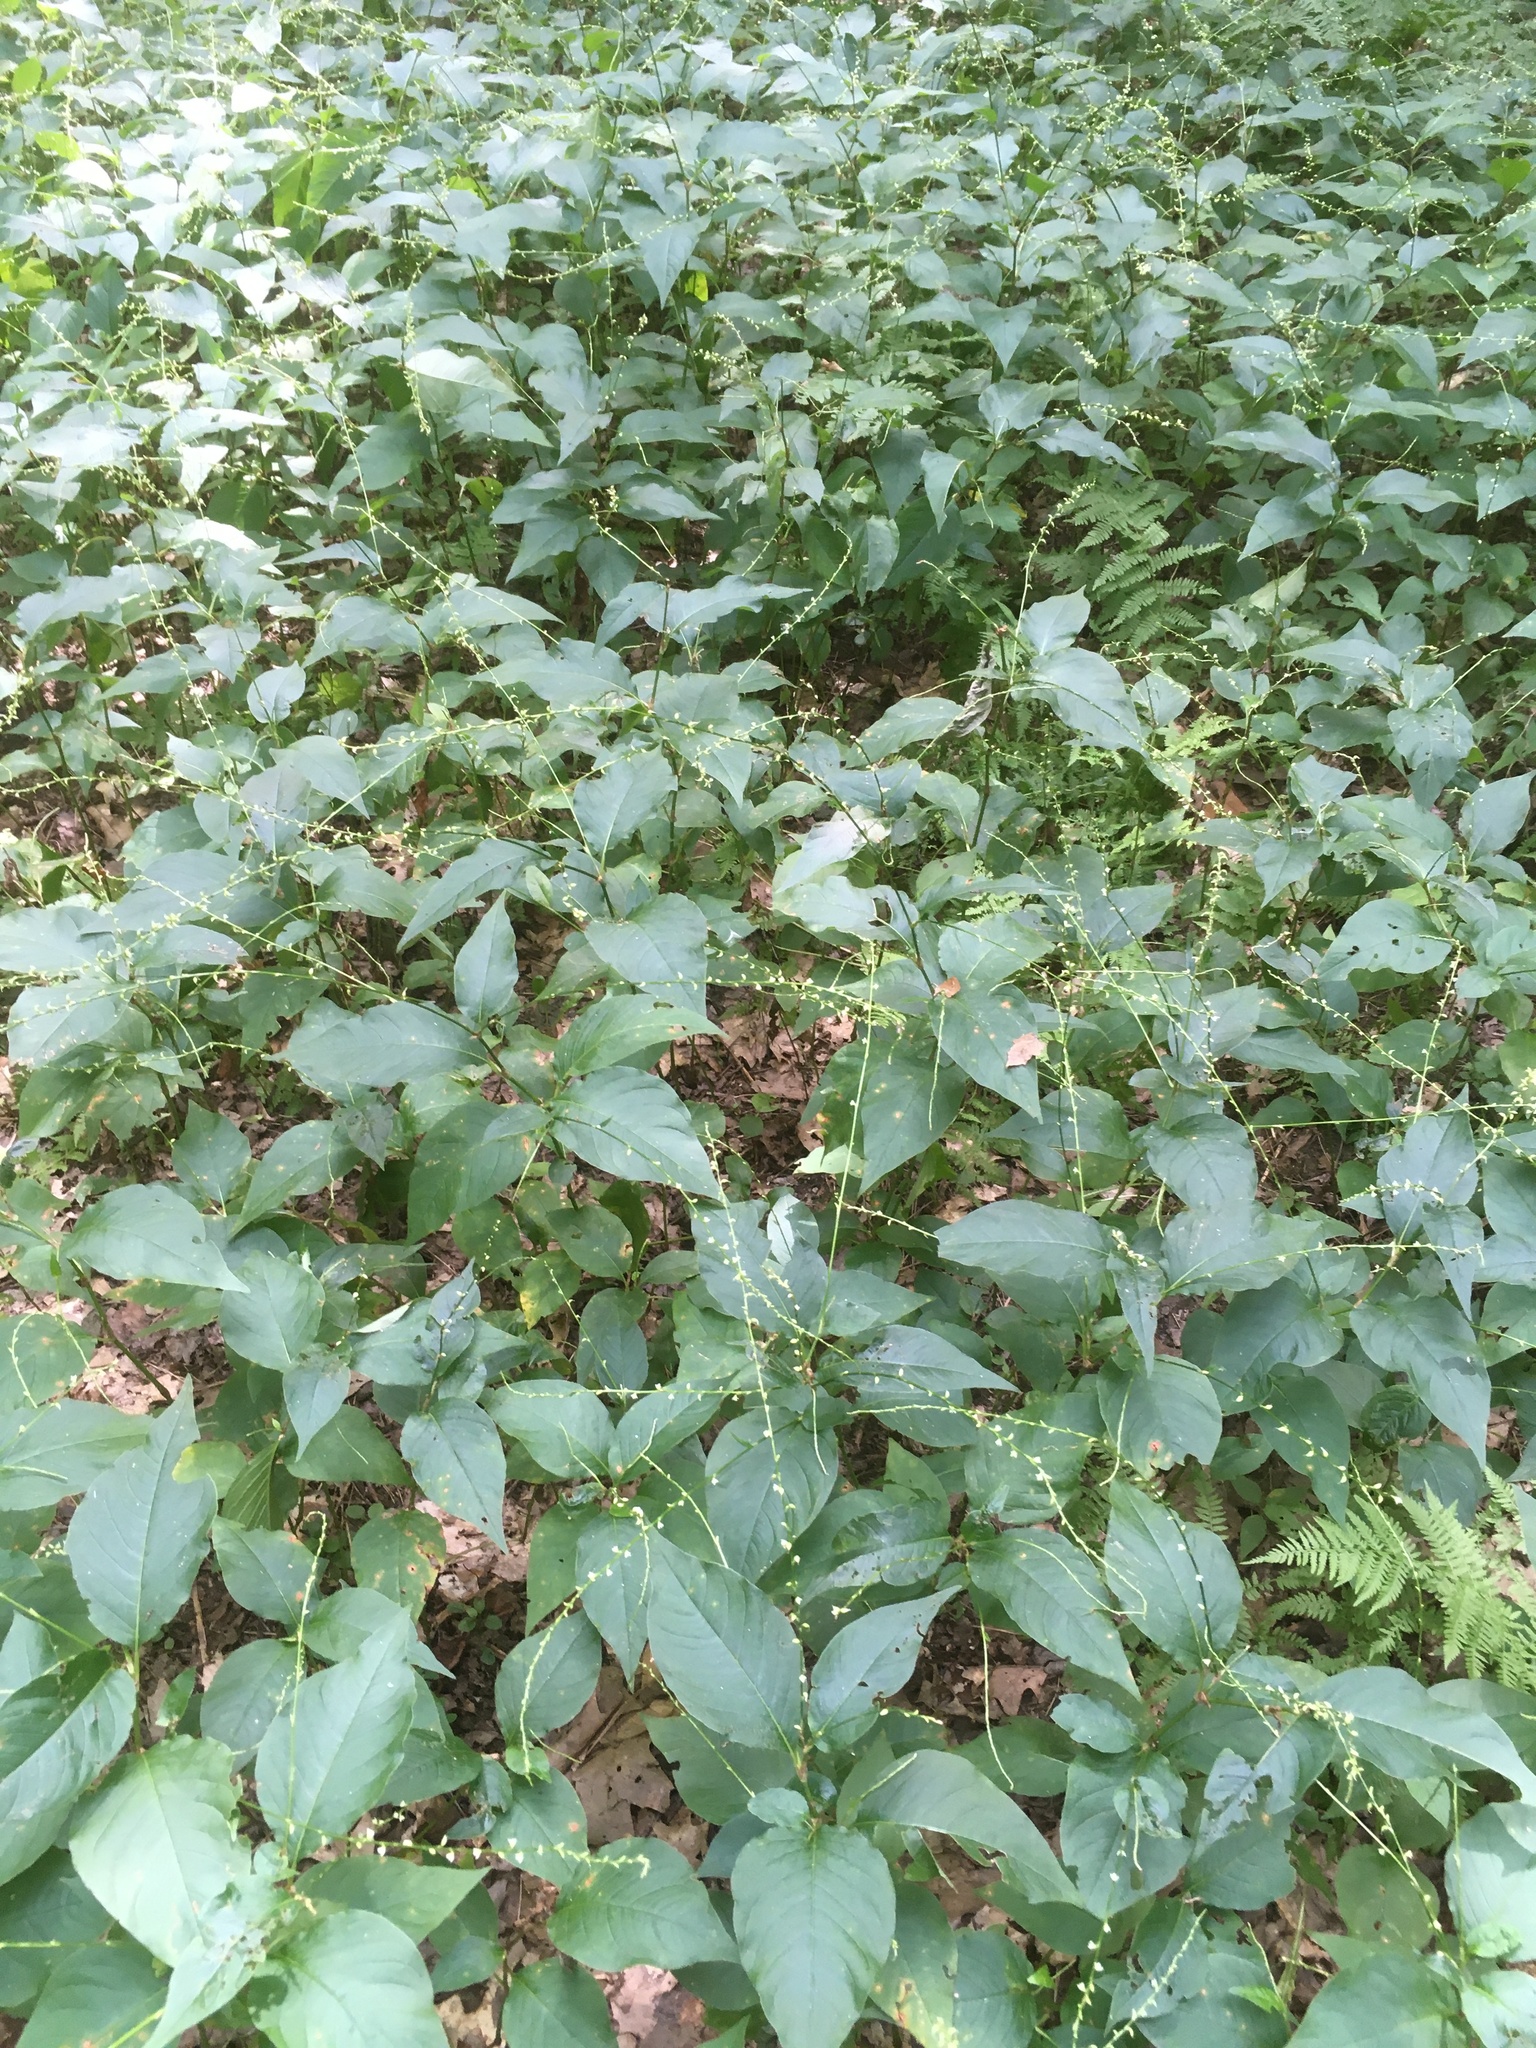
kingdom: Plantae
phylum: Tracheophyta
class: Magnoliopsida
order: Caryophyllales
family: Polygonaceae
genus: Persicaria
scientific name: Persicaria virginiana
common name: Jumpseed
